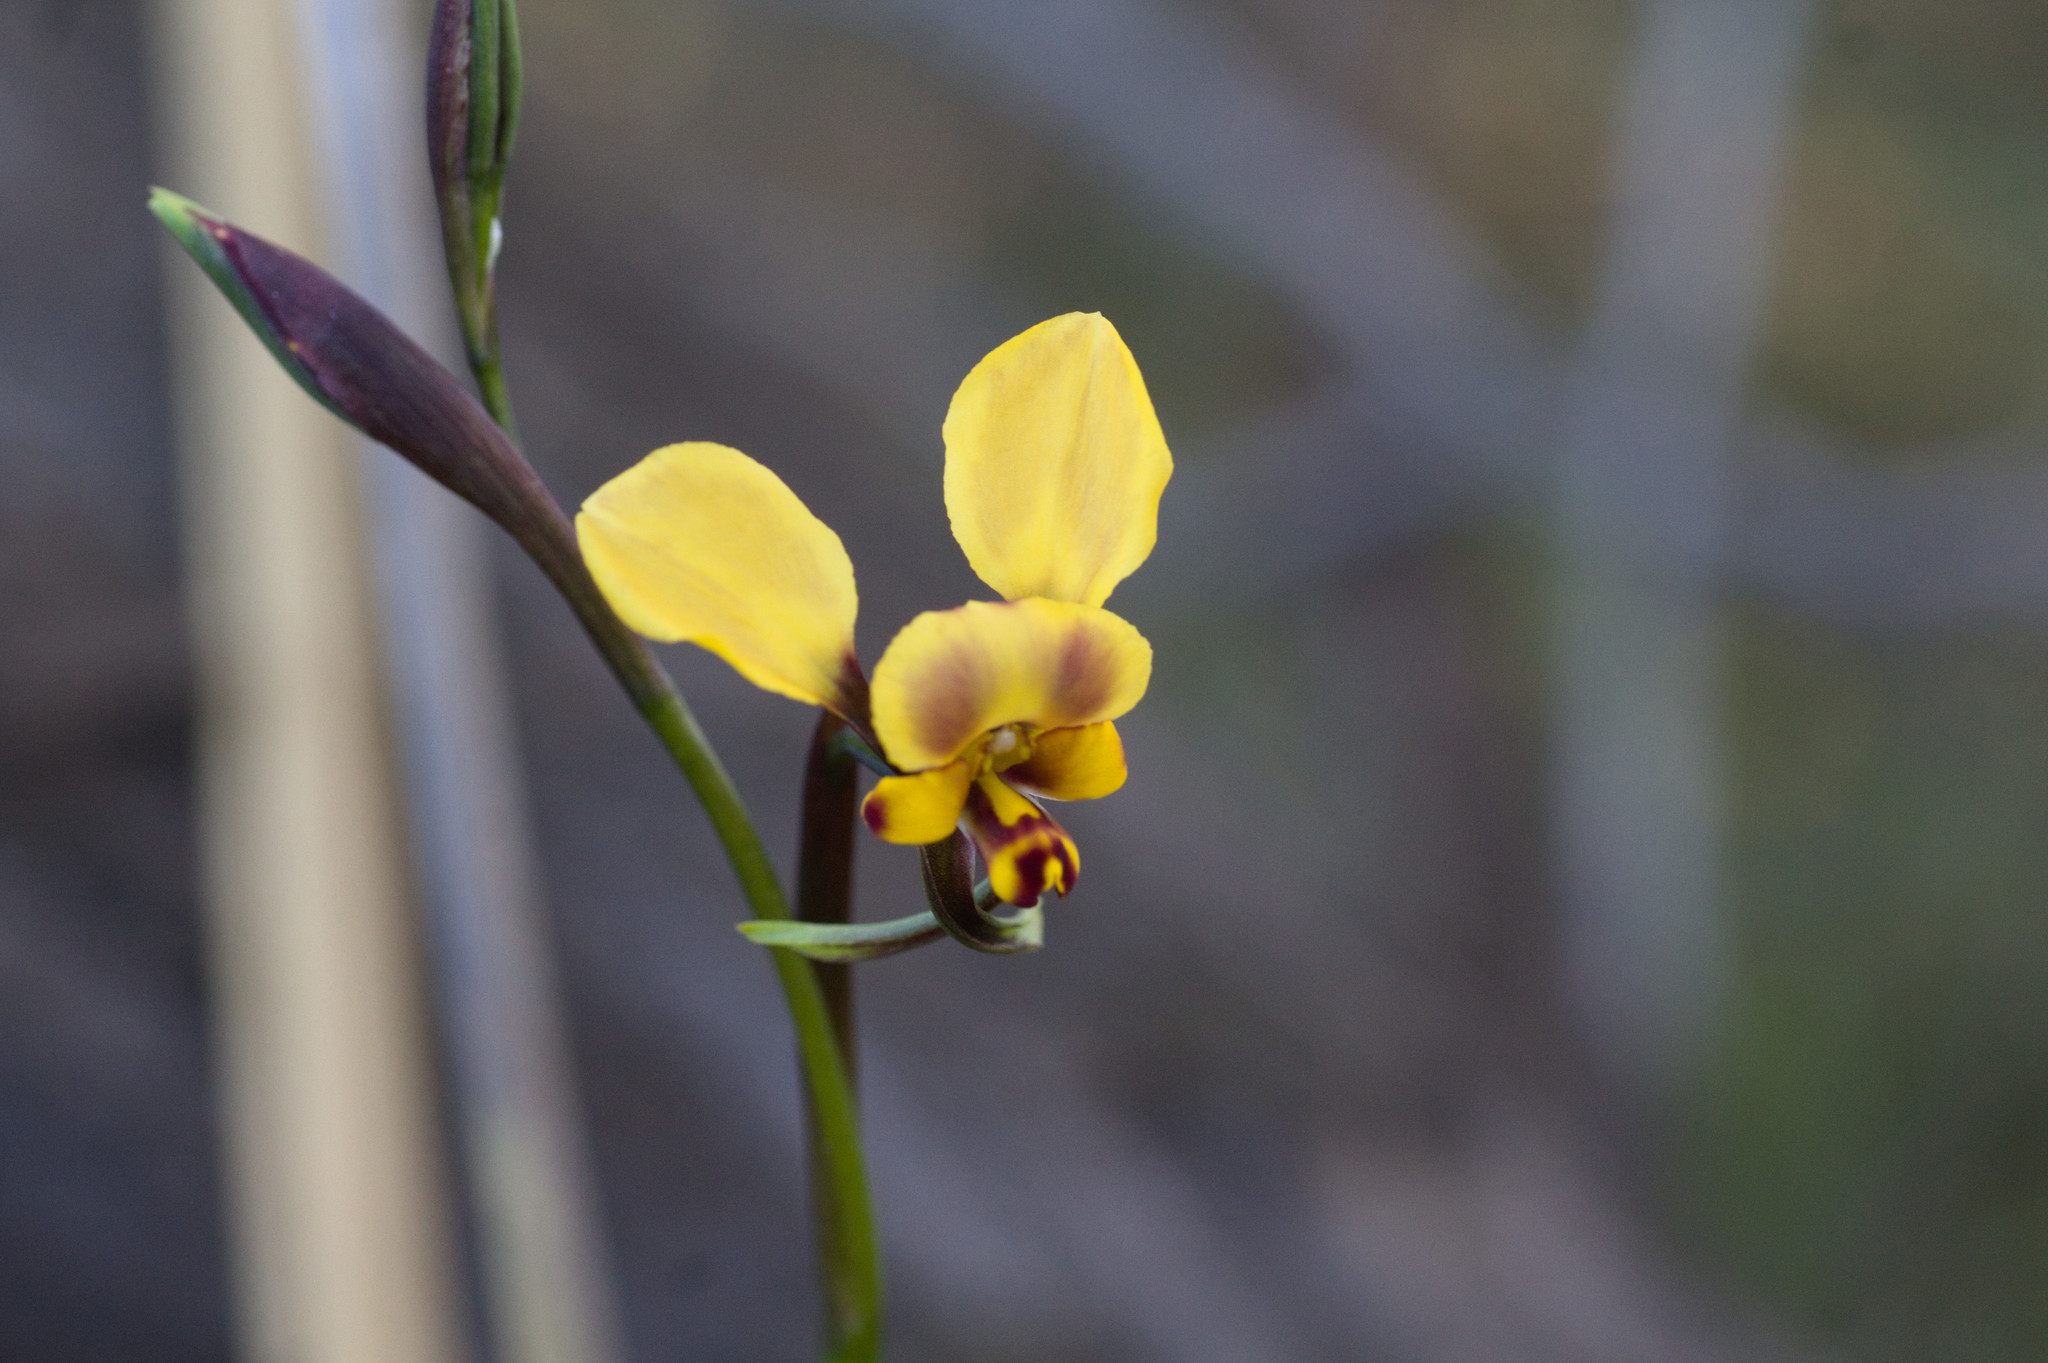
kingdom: Plantae
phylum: Tracheophyta
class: Liliopsida
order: Asparagales
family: Orchidaceae
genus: Diuris
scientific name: Diuris pallescens
